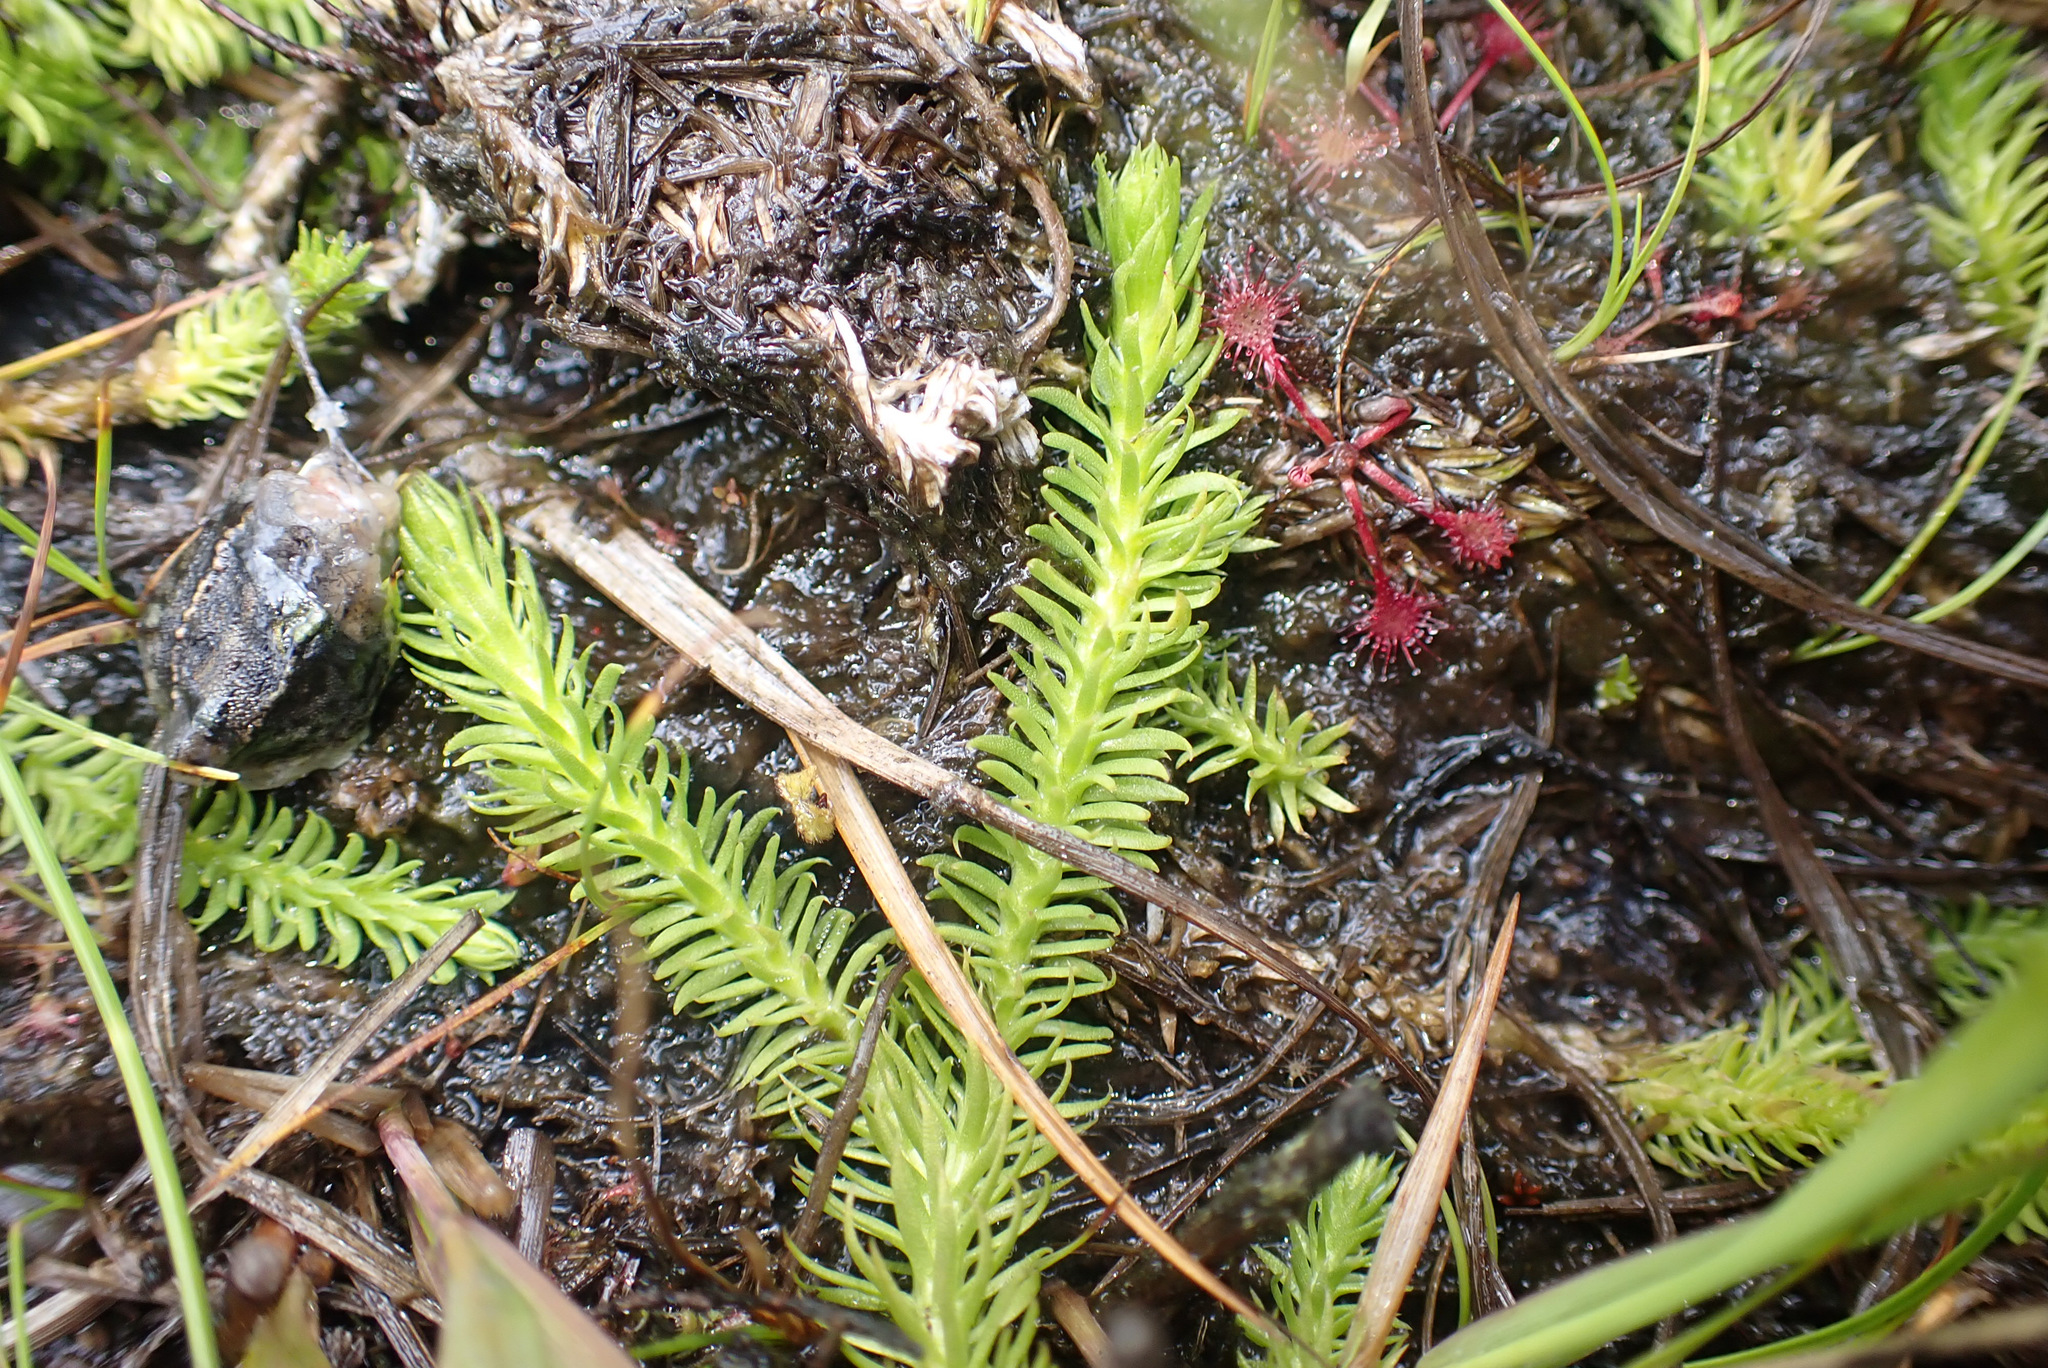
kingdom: Plantae
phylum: Tracheophyta
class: Lycopodiopsida
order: Lycopodiales
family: Lycopodiaceae
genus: Lycopodiella
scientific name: Lycopodiella inundata
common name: Marsh clubmoss
